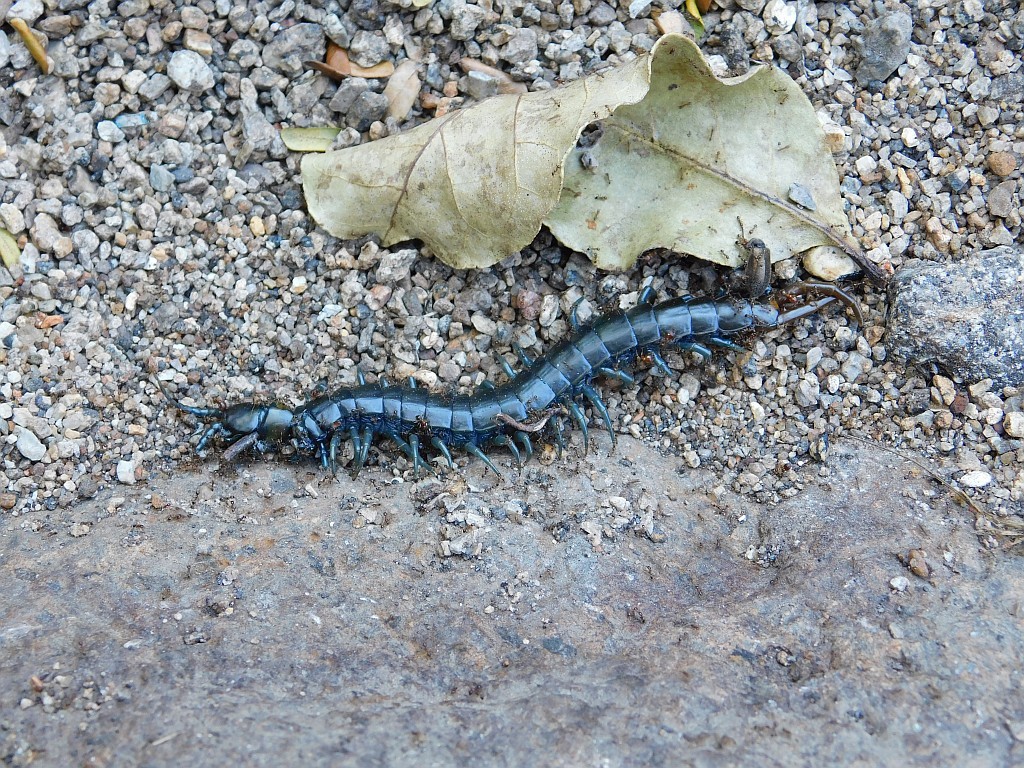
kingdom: Animalia
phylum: Arthropoda
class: Chilopoda
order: Scolopendromorpha
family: Scolopendridae
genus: Ethmostigmus
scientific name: Ethmostigmus trigonopodus
